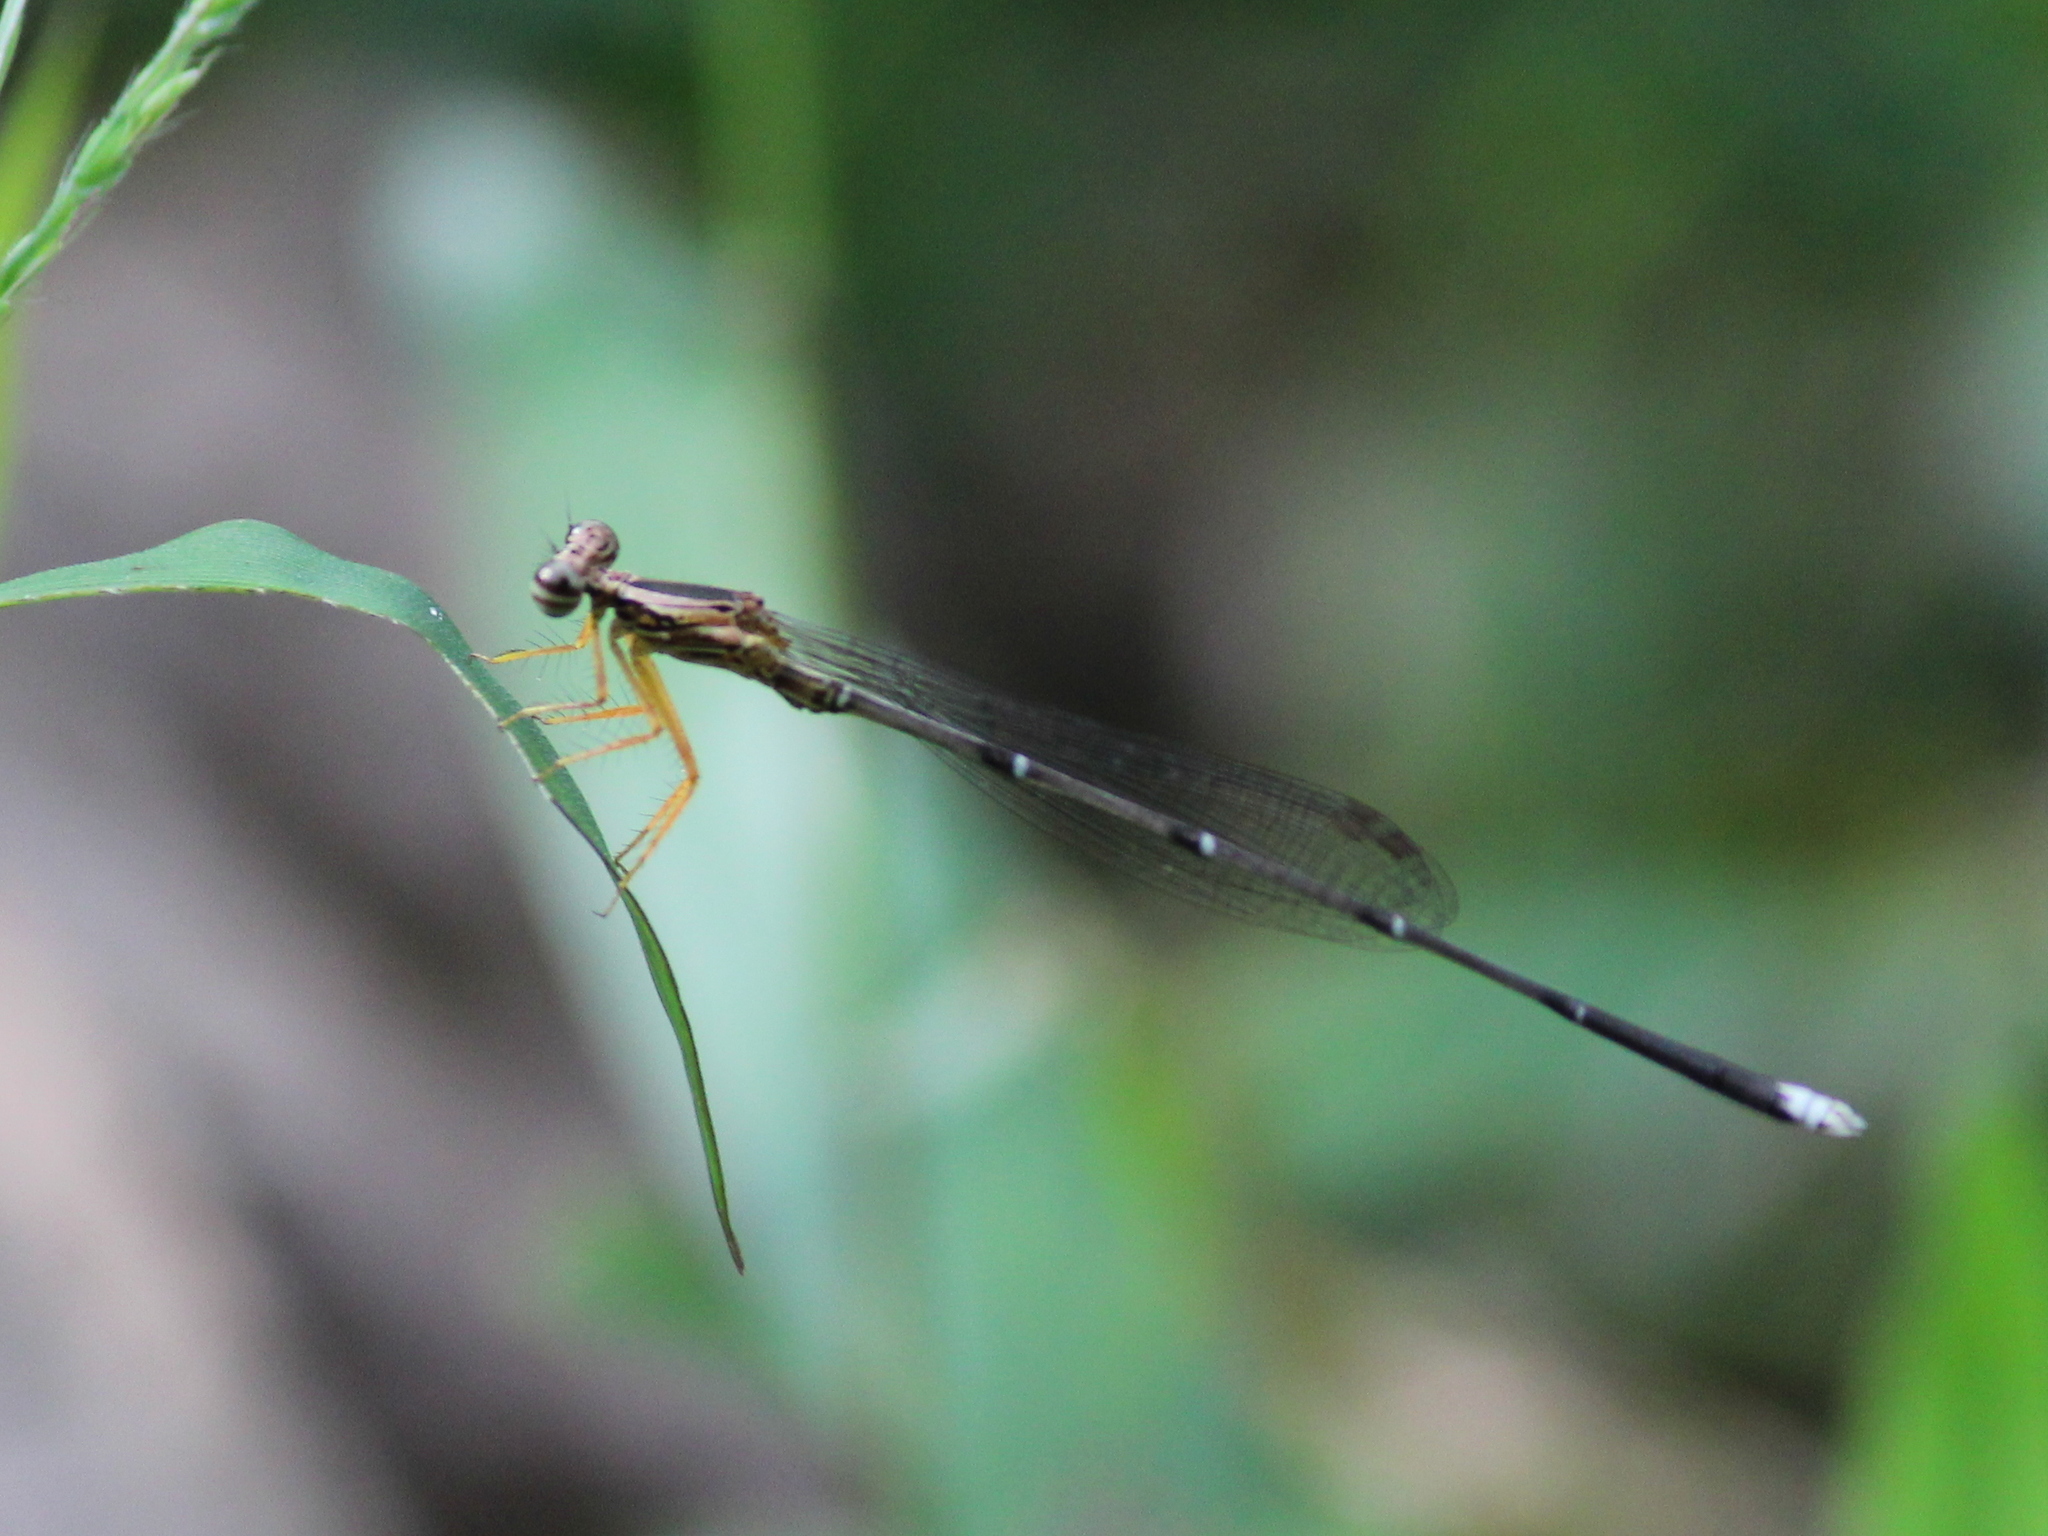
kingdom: Animalia
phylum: Arthropoda
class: Insecta
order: Odonata
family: Platycnemididae
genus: Copera
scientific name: Copera vittata
